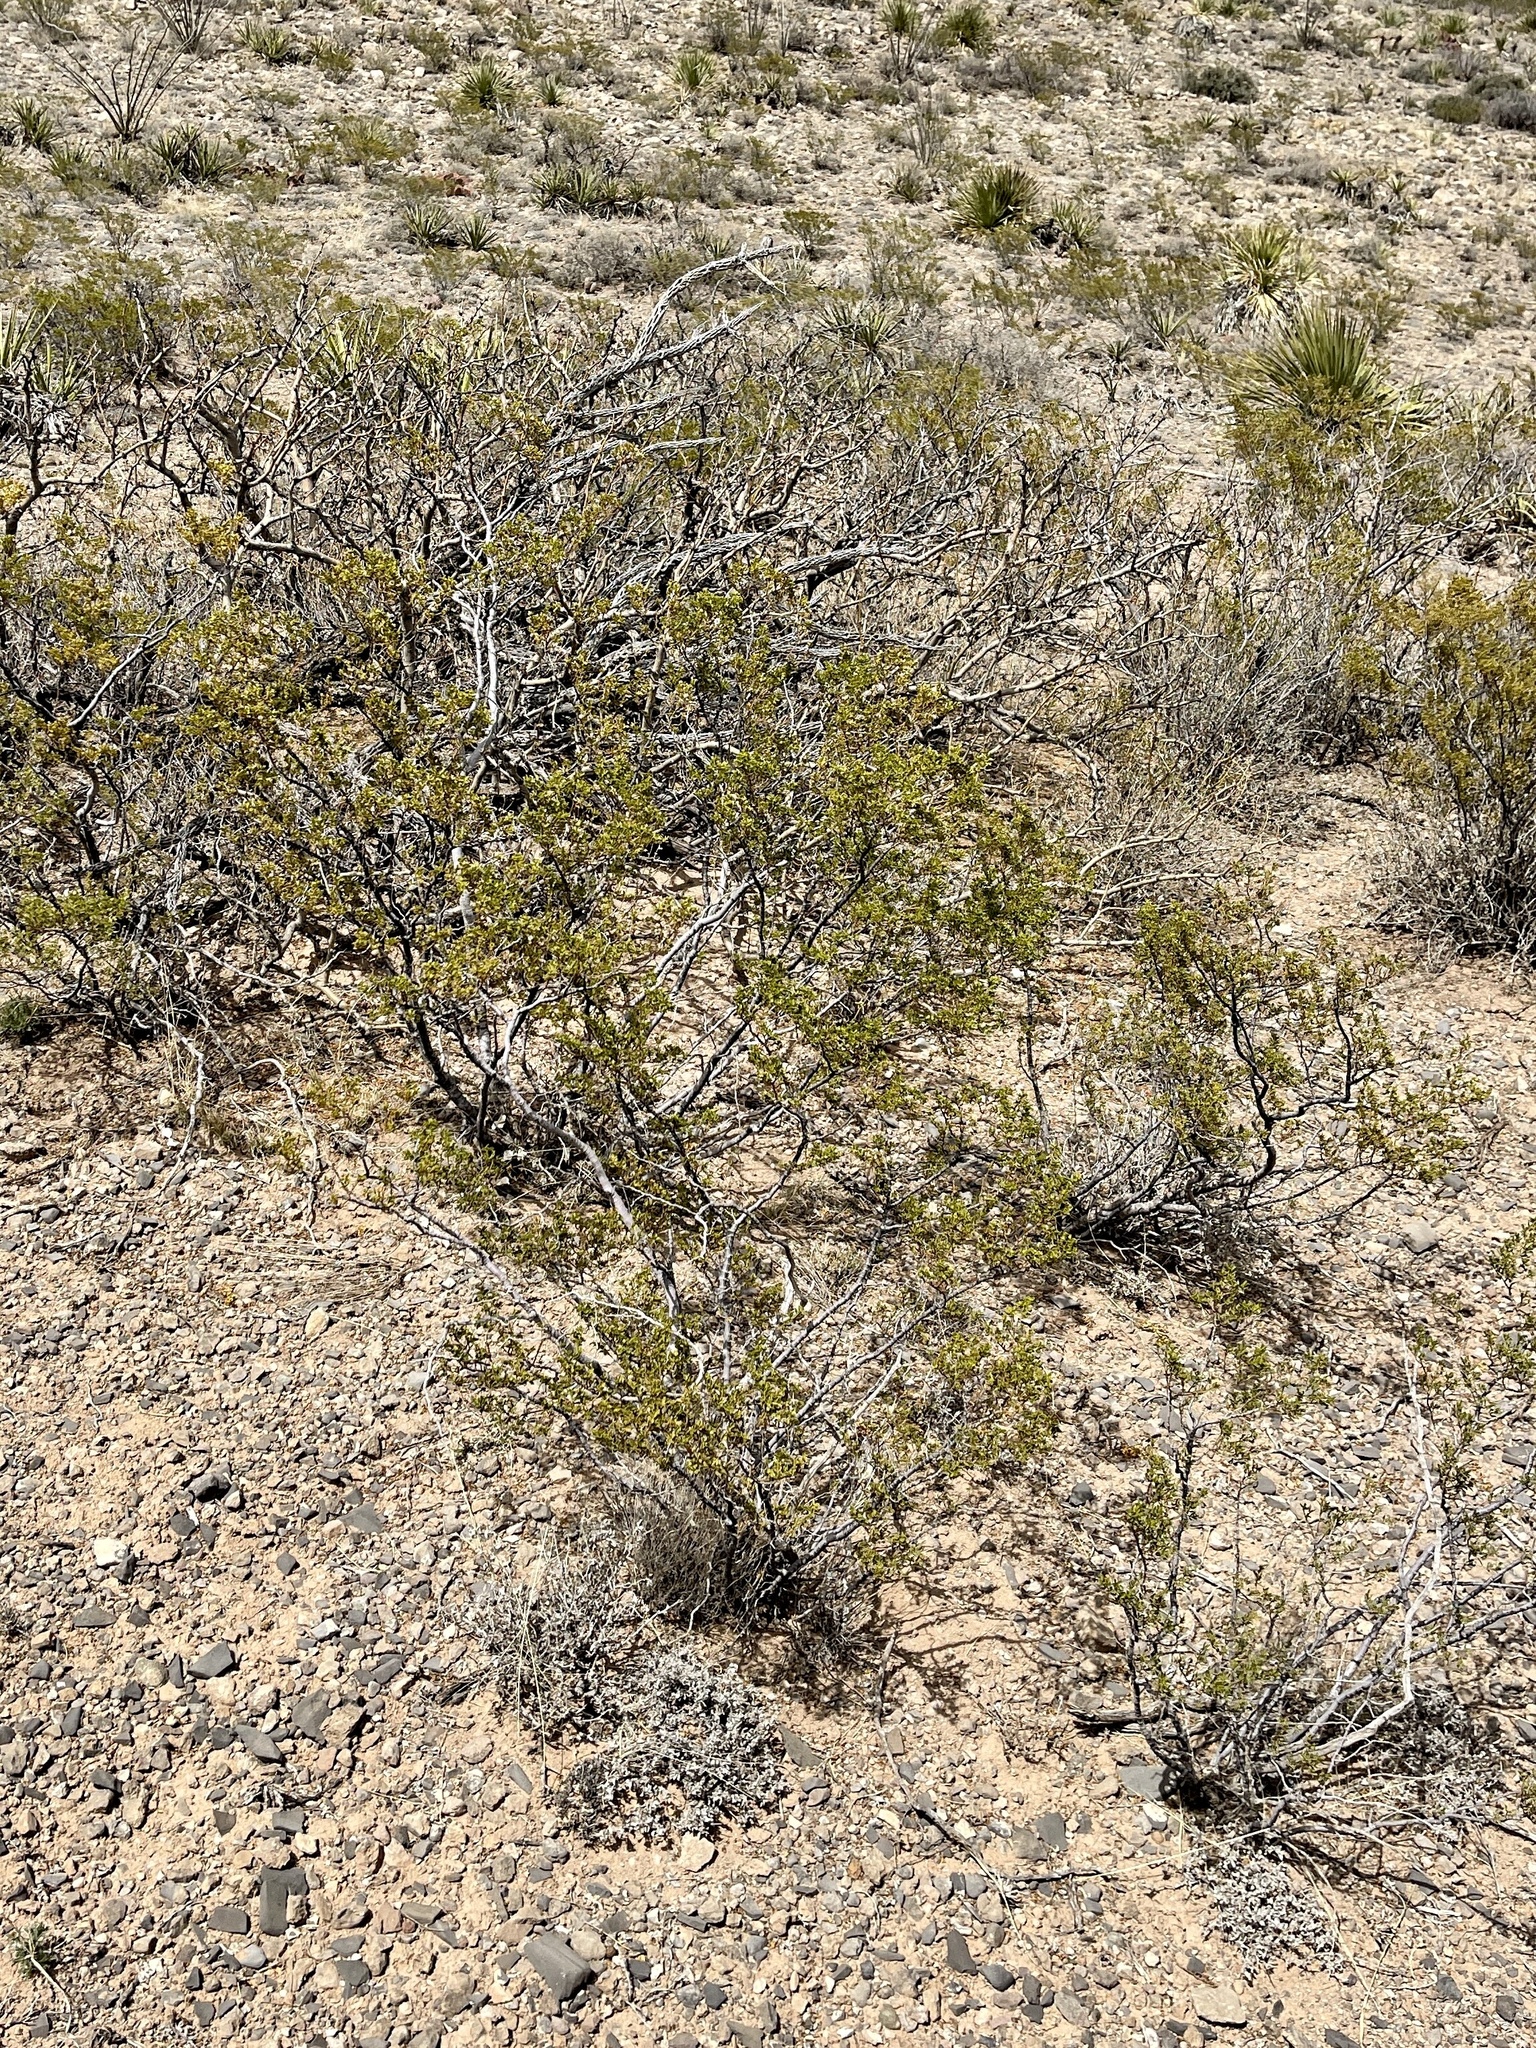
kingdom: Plantae
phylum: Tracheophyta
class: Magnoliopsida
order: Zygophyllales
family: Zygophyllaceae
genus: Larrea
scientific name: Larrea tridentata
